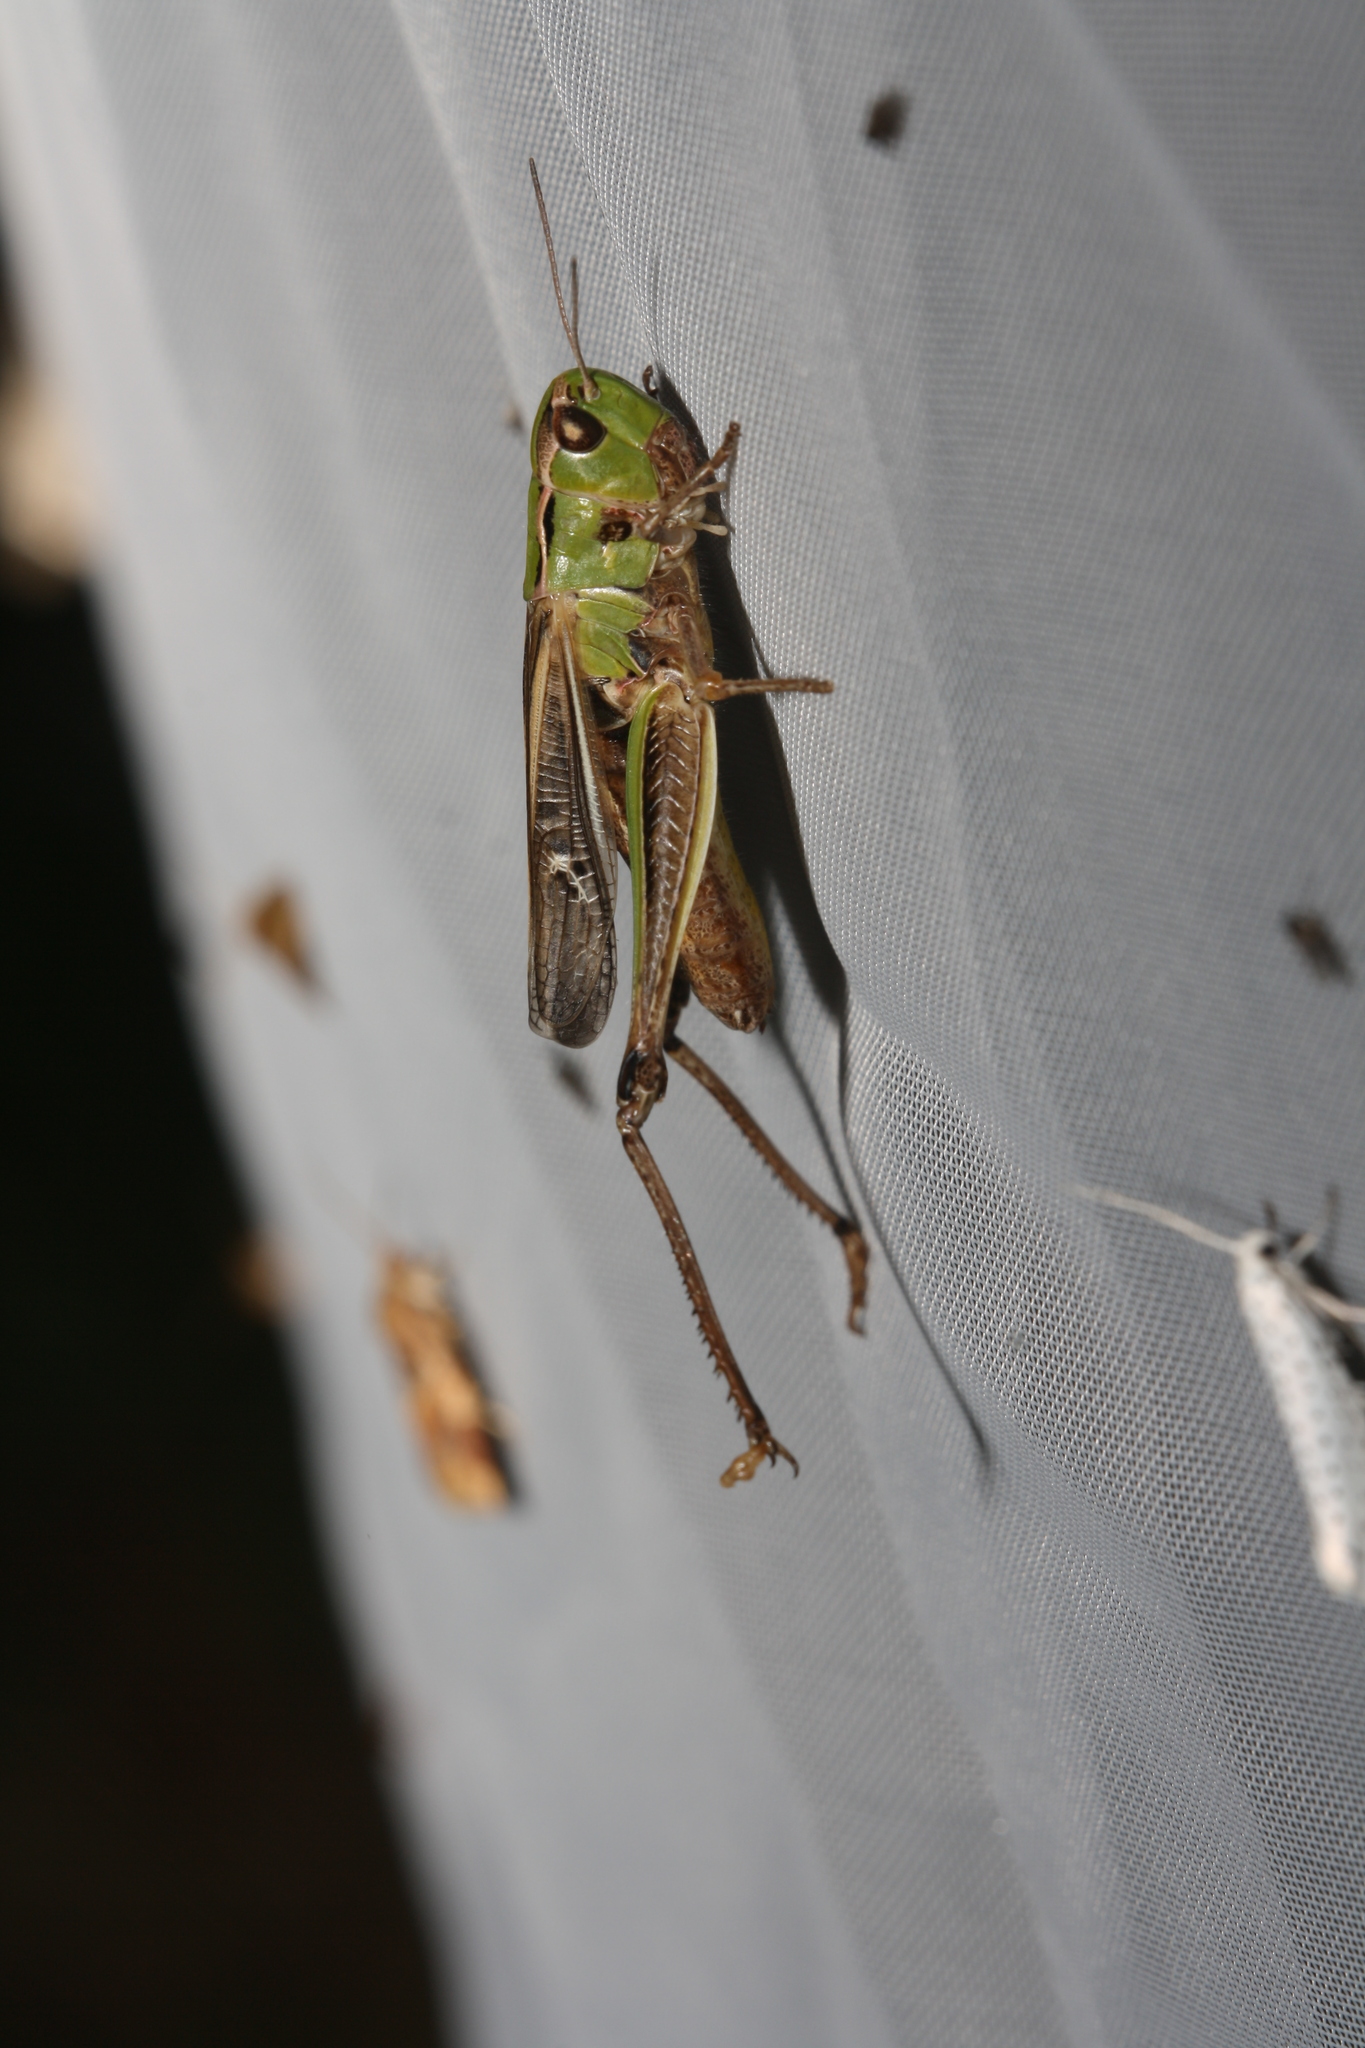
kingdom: Animalia
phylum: Arthropoda
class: Insecta
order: Orthoptera
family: Acrididae
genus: Stenobothrus
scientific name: Stenobothrus lineatus
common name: Stripe-winged grasshopper
